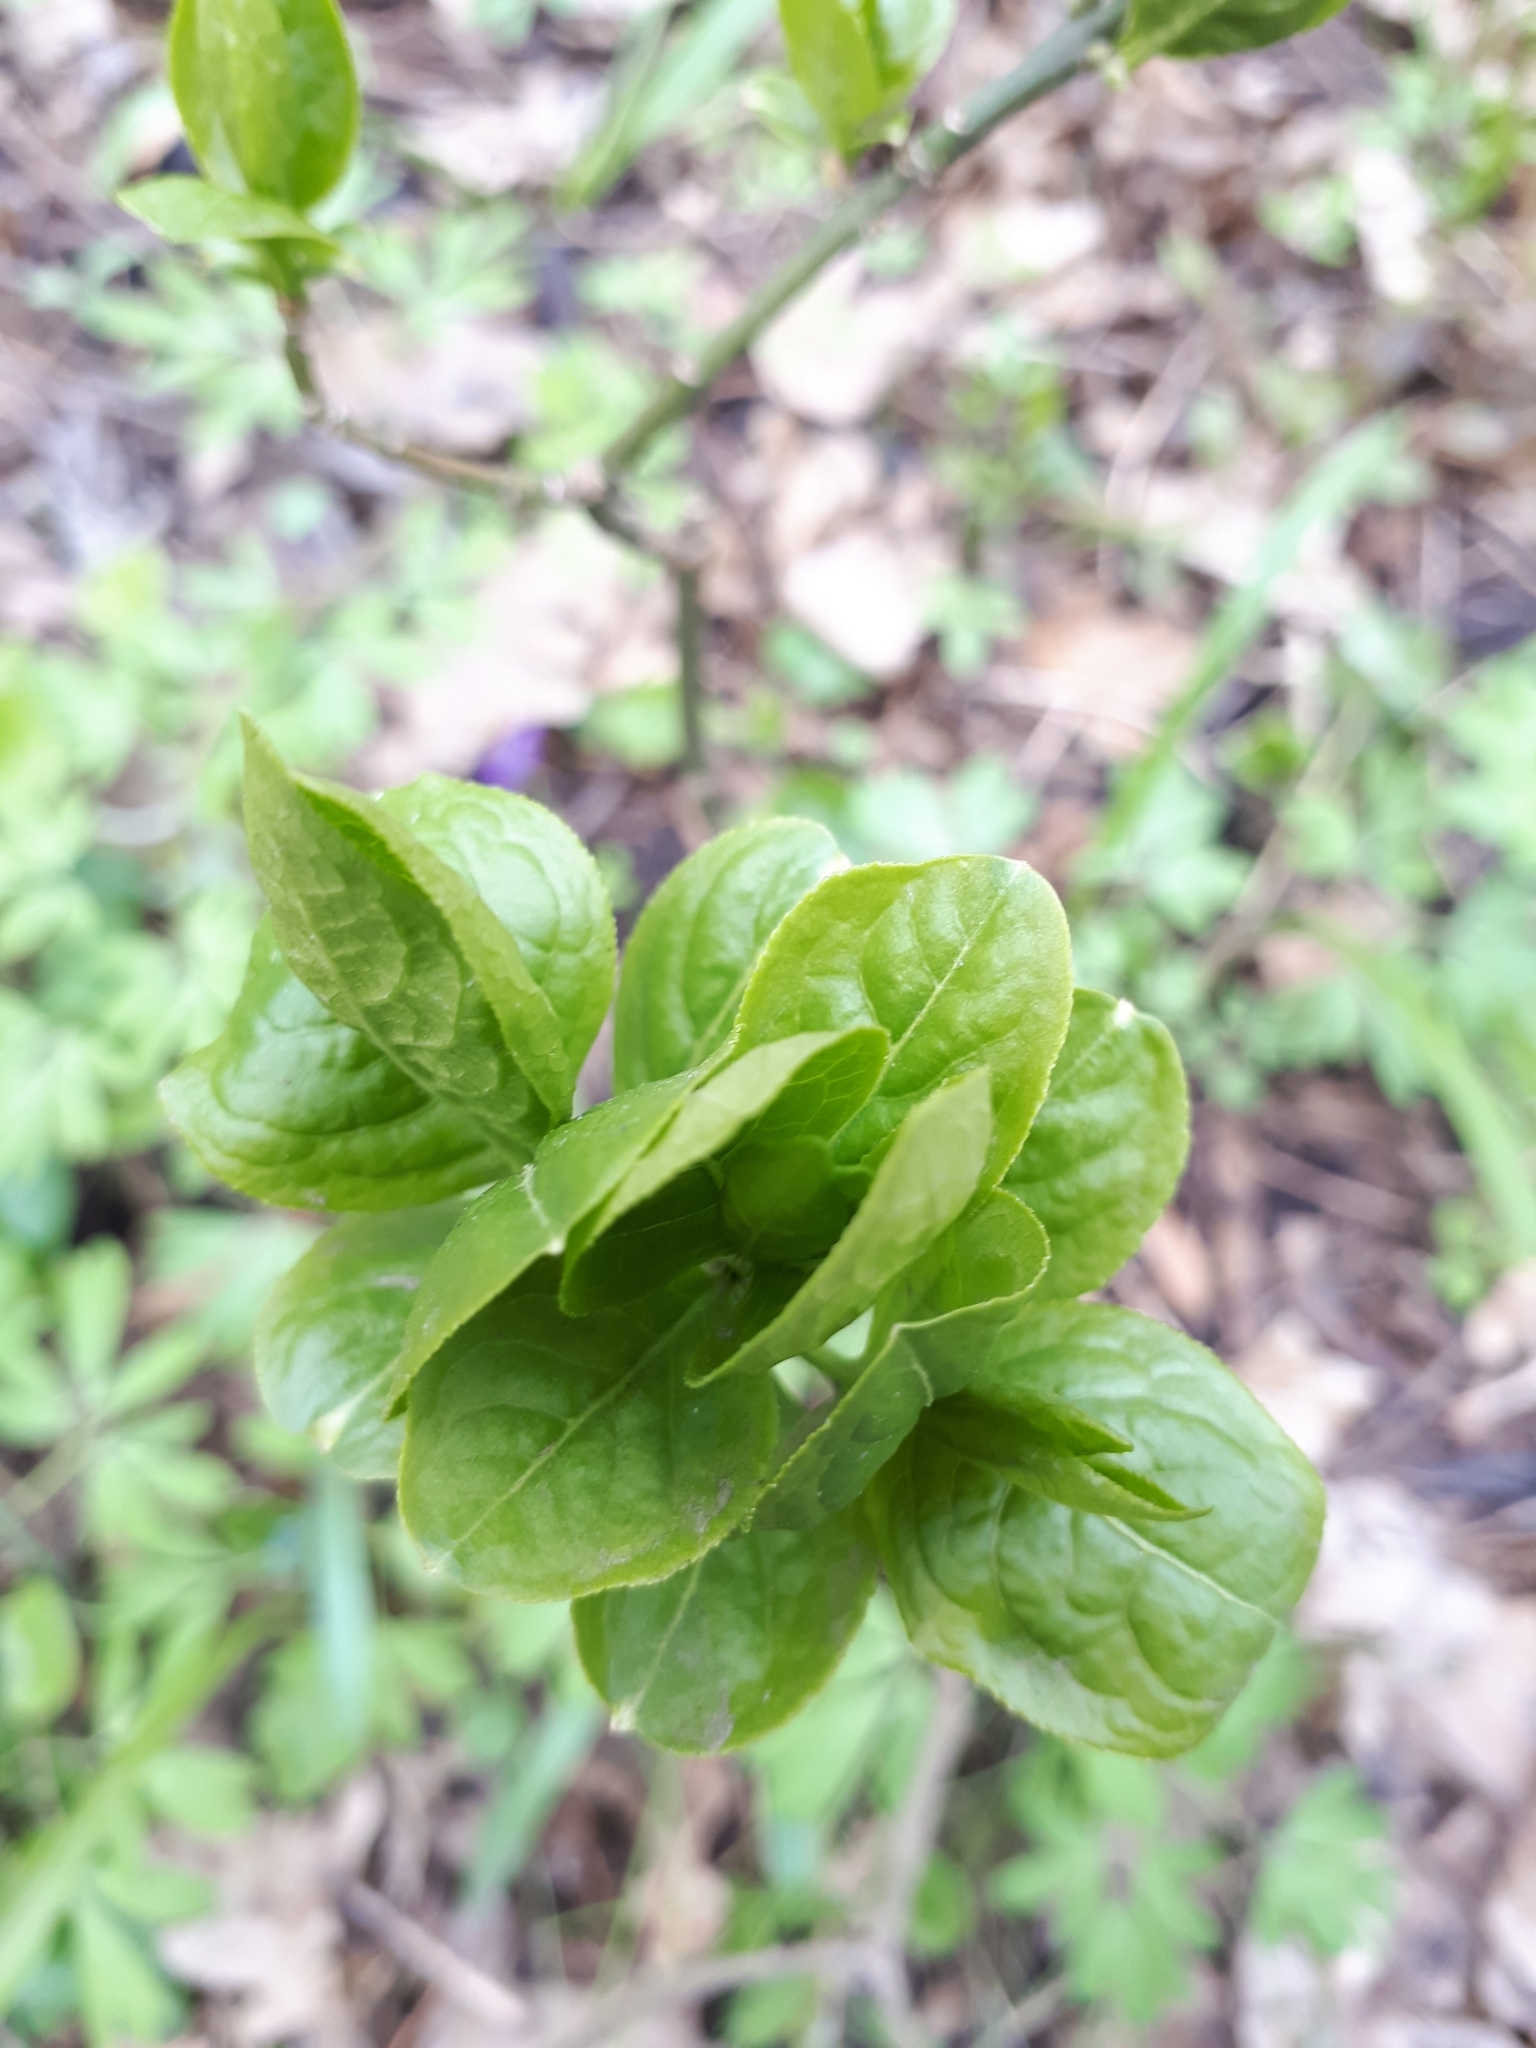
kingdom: Plantae
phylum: Tracheophyta
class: Magnoliopsida
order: Celastrales
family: Celastraceae
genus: Euonymus
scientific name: Euonymus europaeus
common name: Spindle
